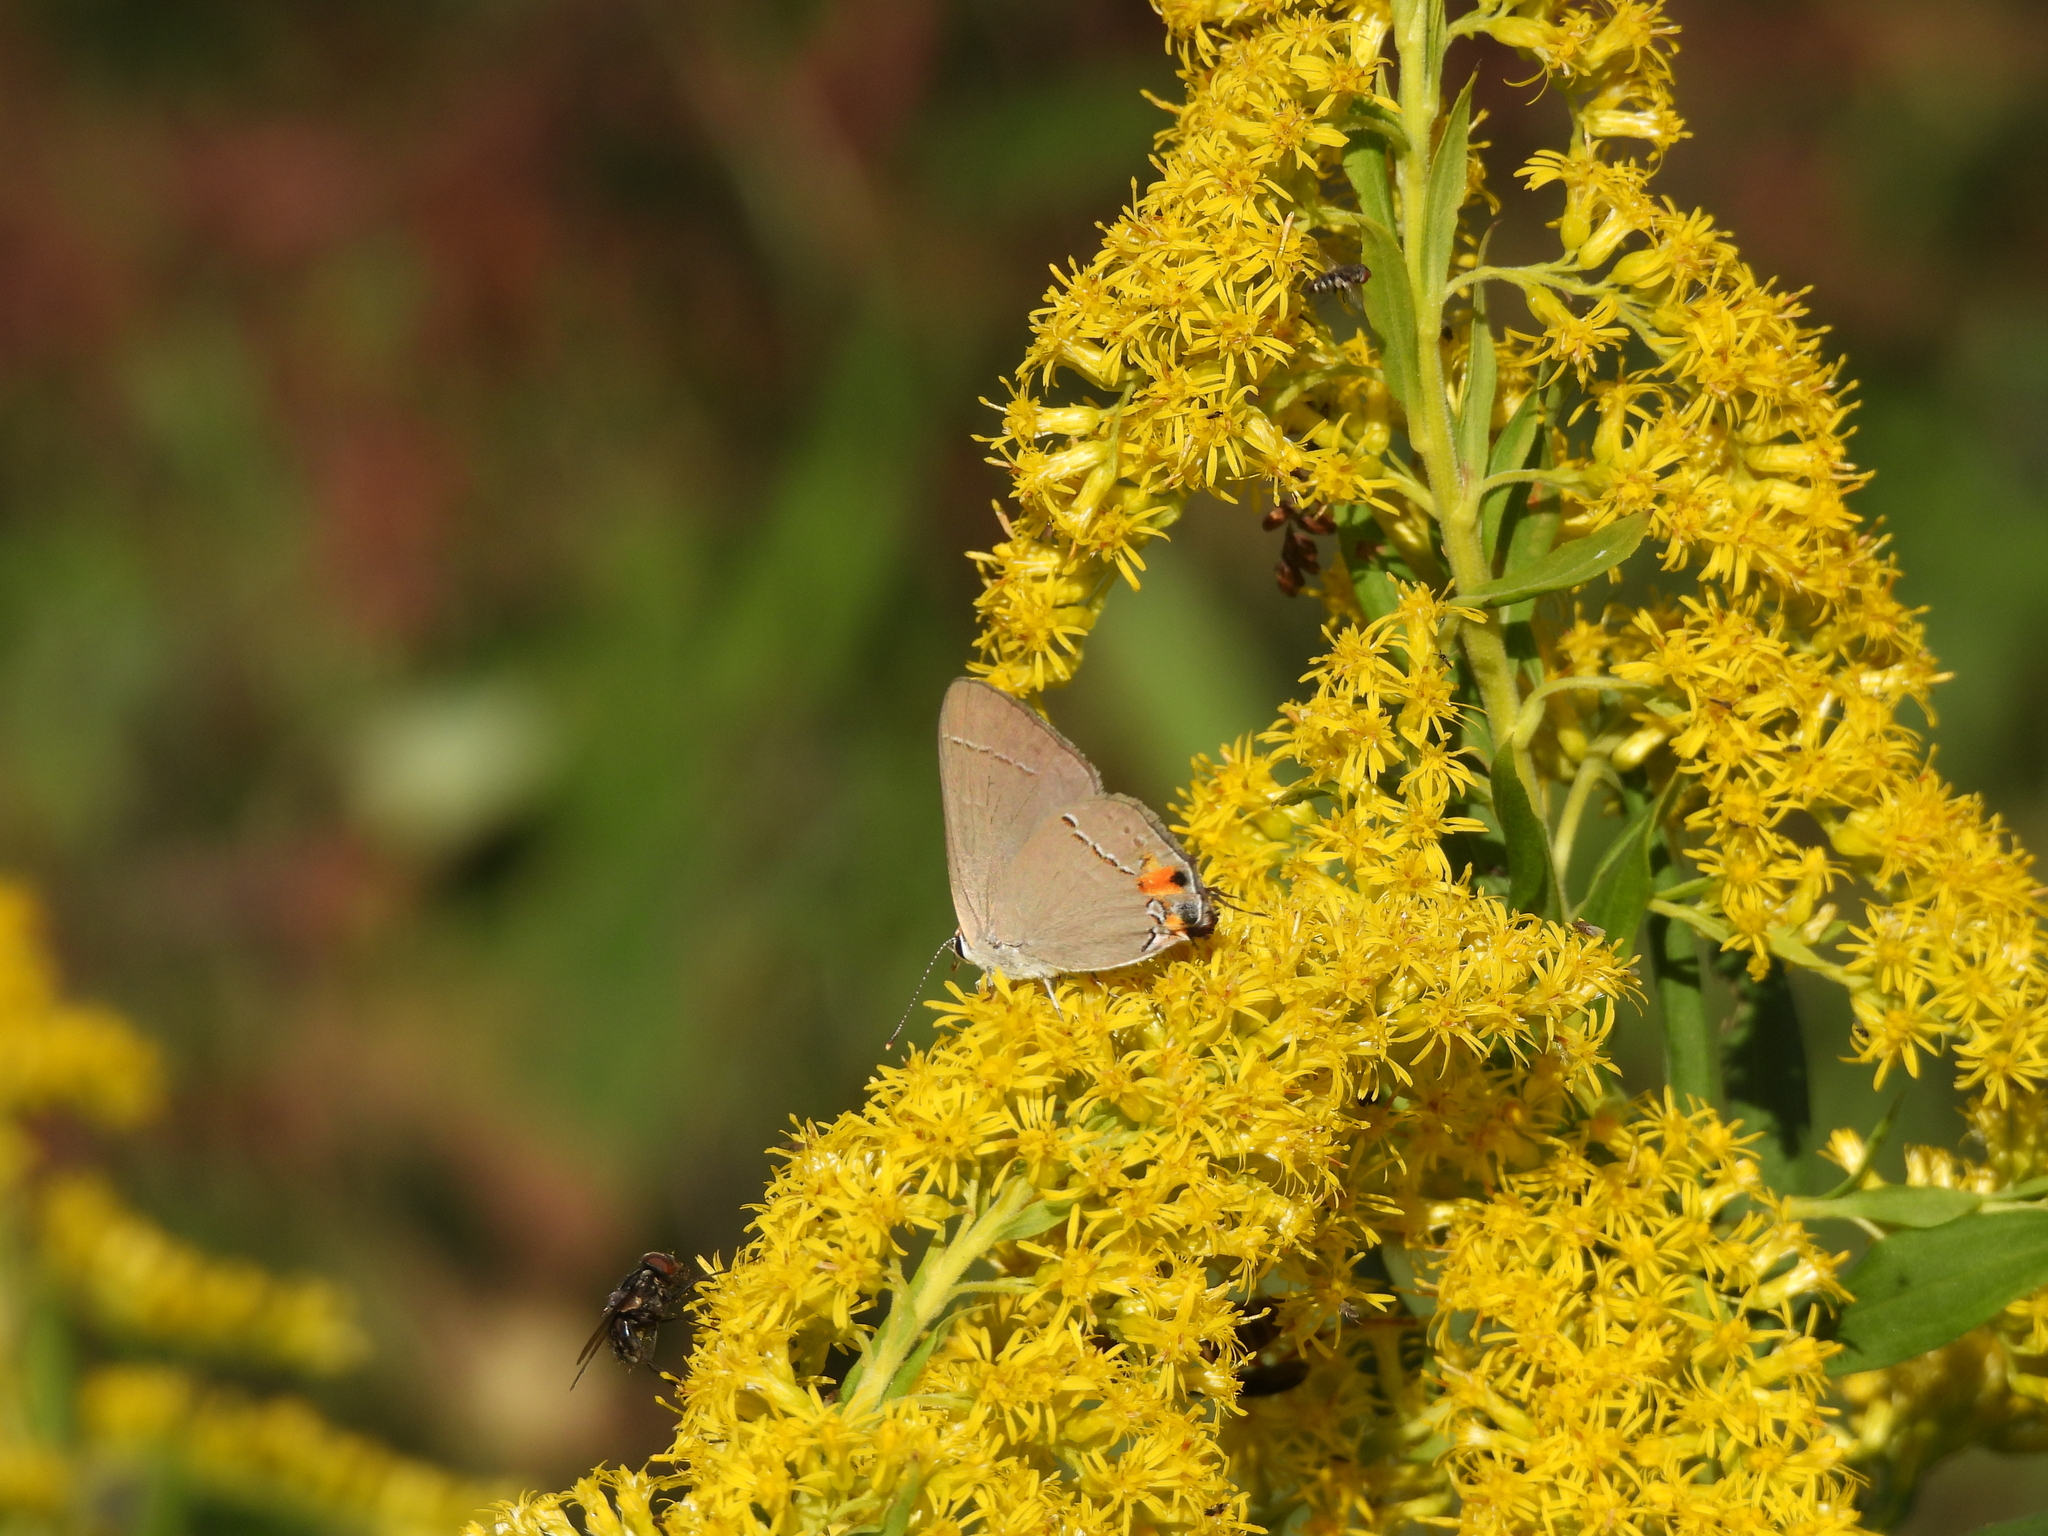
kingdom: Animalia
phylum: Arthropoda
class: Insecta
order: Lepidoptera
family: Lycaenidae
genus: Strymon
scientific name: Strymon melinus
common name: Gray hairstreak
